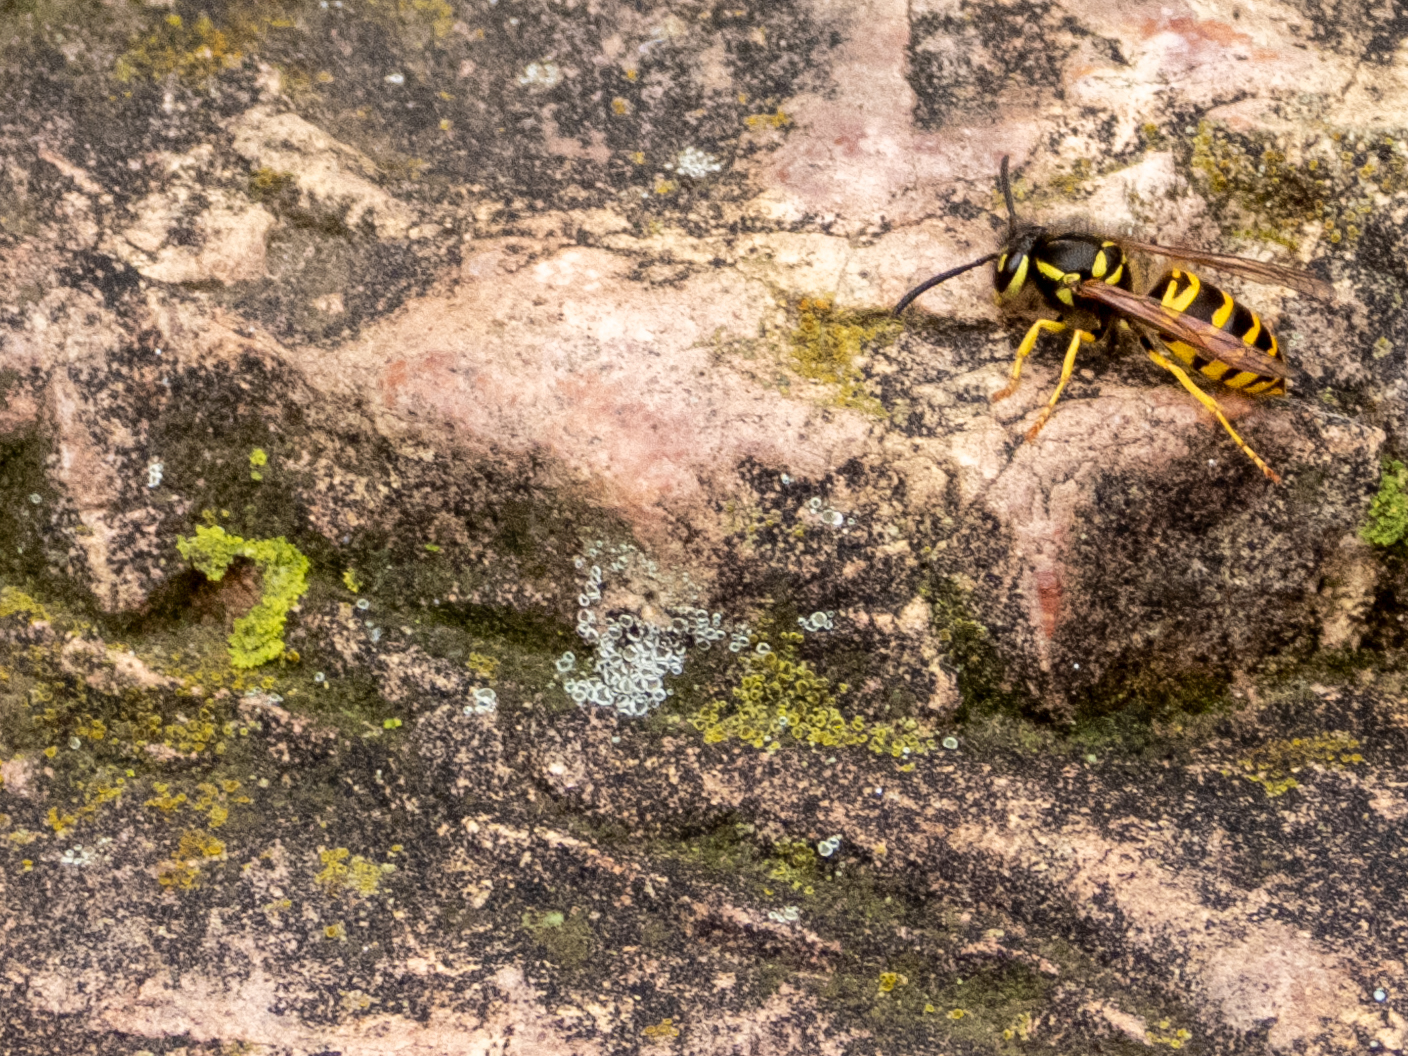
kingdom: Animalia
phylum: Arthropoda
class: Insecta
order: Hymenoptera
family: Vespidae
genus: Vespula
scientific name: Vespula maculifrons
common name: Eastern yellowjacket
